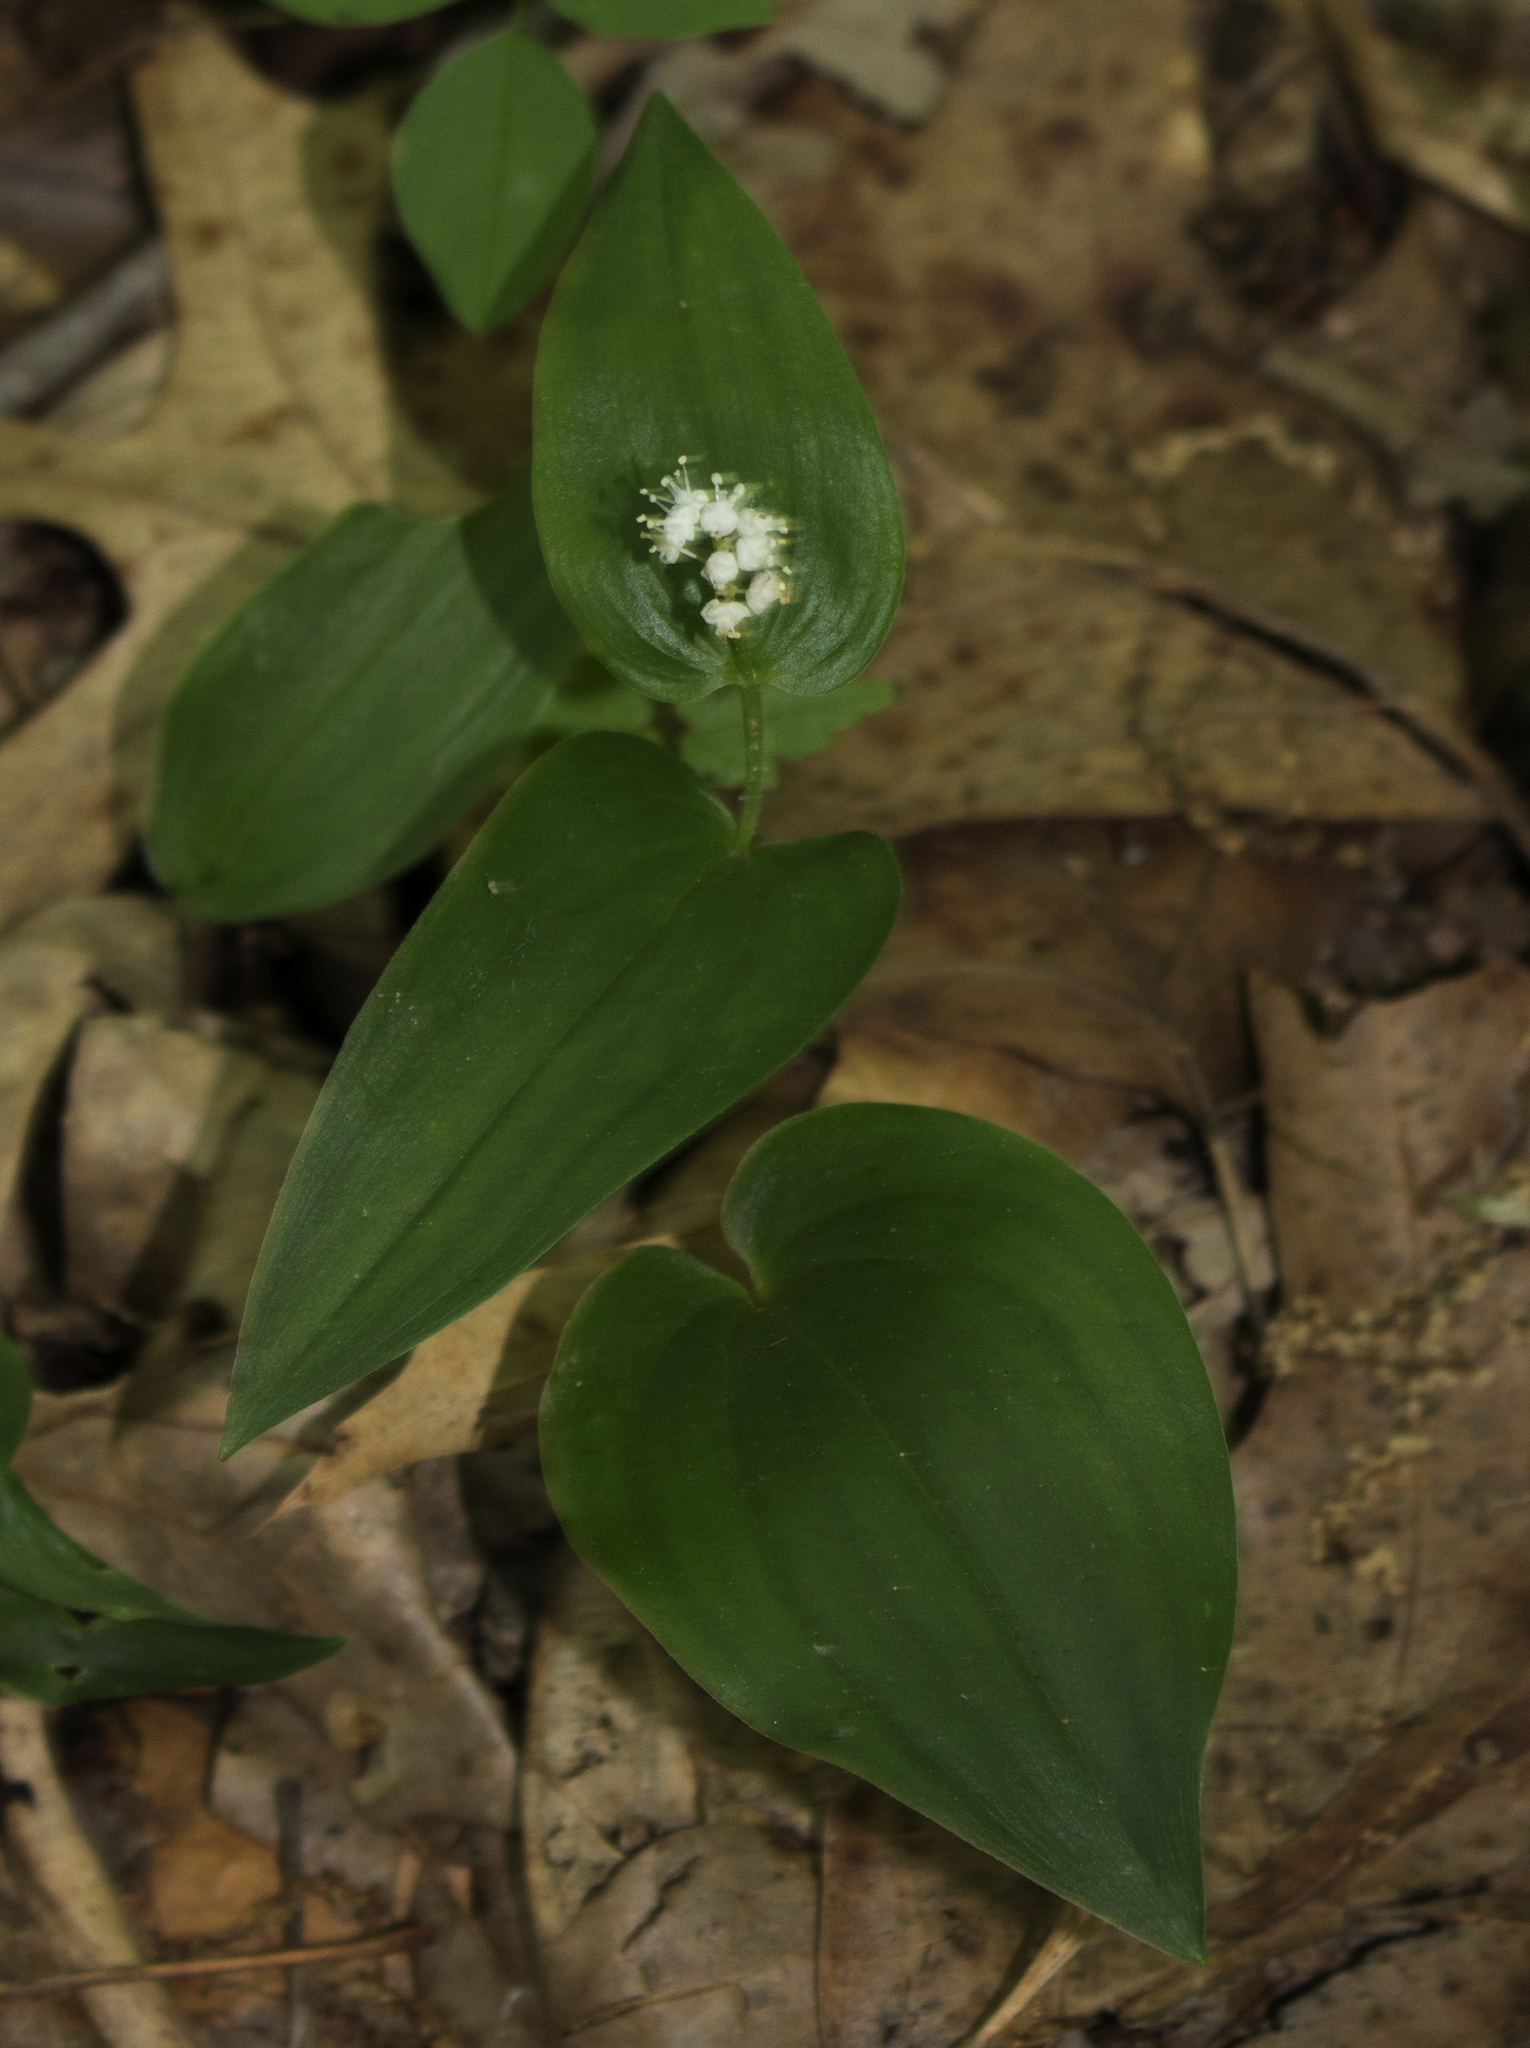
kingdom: Plantae
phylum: Tracheophyta
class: Liliopsida
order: Asparagales
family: Asparagaceae
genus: Maianthemum
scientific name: Maianthemum canadense
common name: False lily-of-the-valley
